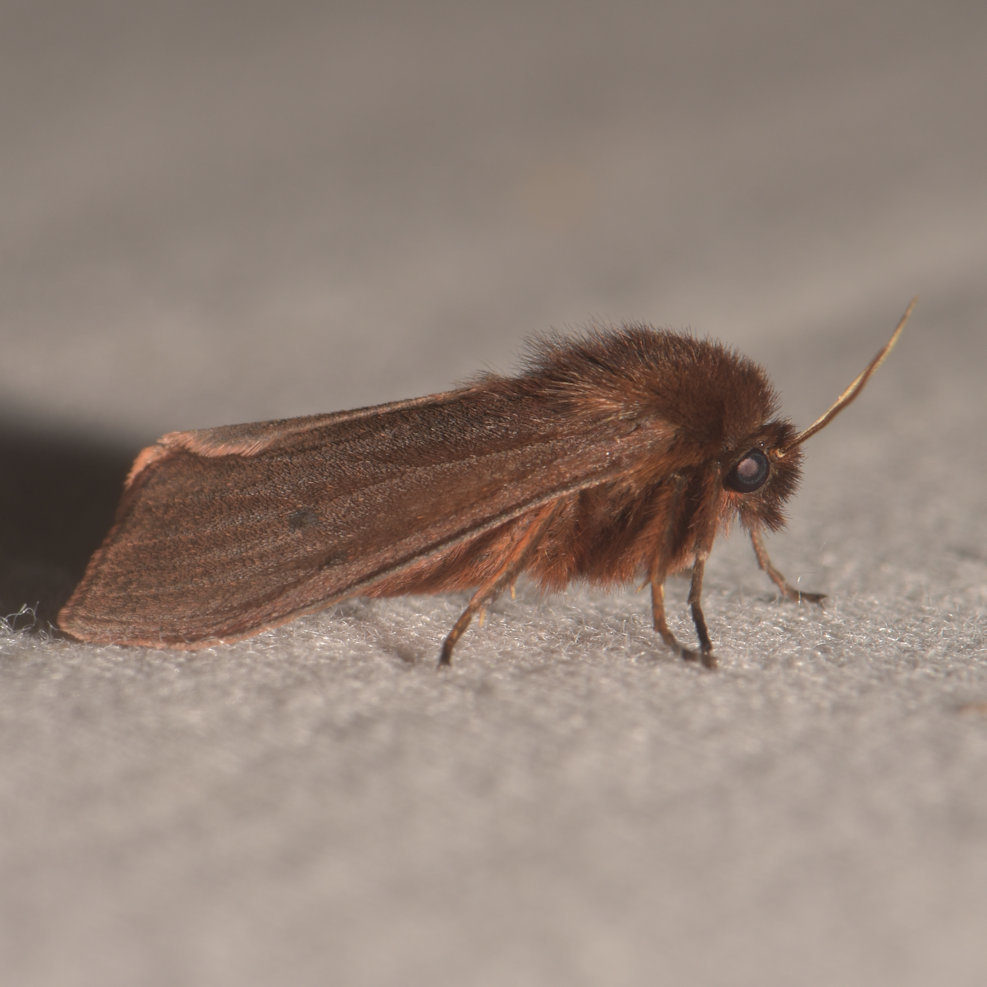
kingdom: Animalia
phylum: Arthropoda
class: Insecta
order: Lepidoptera
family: Erebidae
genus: Phragmatobia
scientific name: Phragmatobia fuliginosa
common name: Ruby tiger
